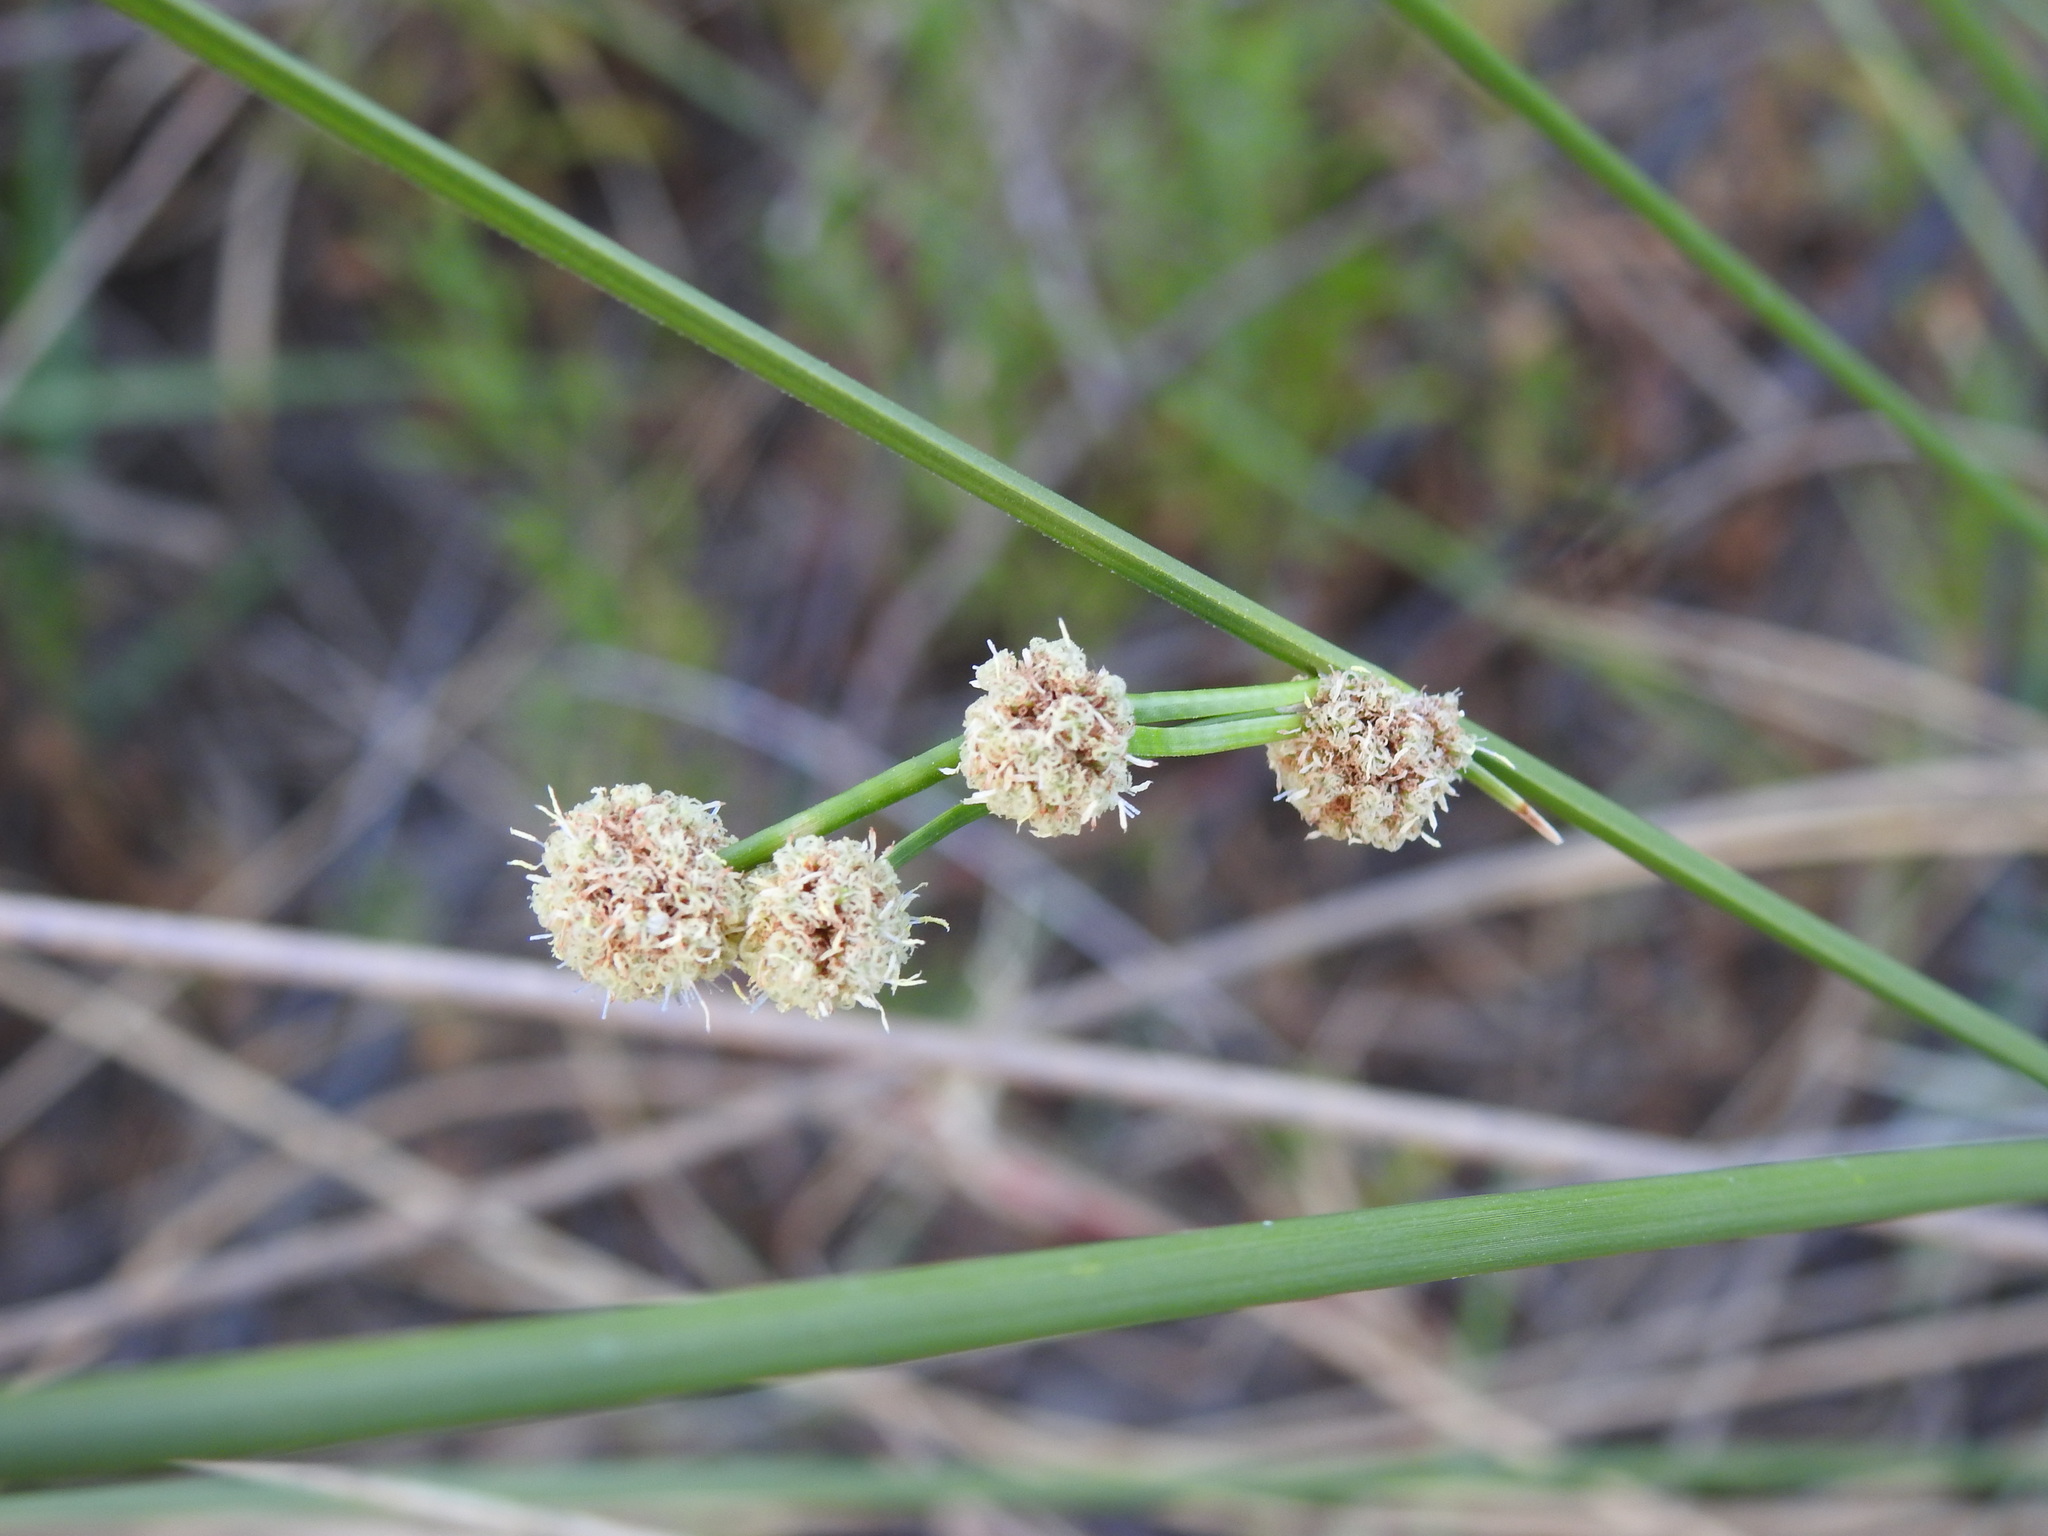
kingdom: Plantae
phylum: Tracheophyta
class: Liliopsida
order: Poales
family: Cyperaceae
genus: Scirpoides
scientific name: Scirpoides holoschoenus
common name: Round-headed club-rush
